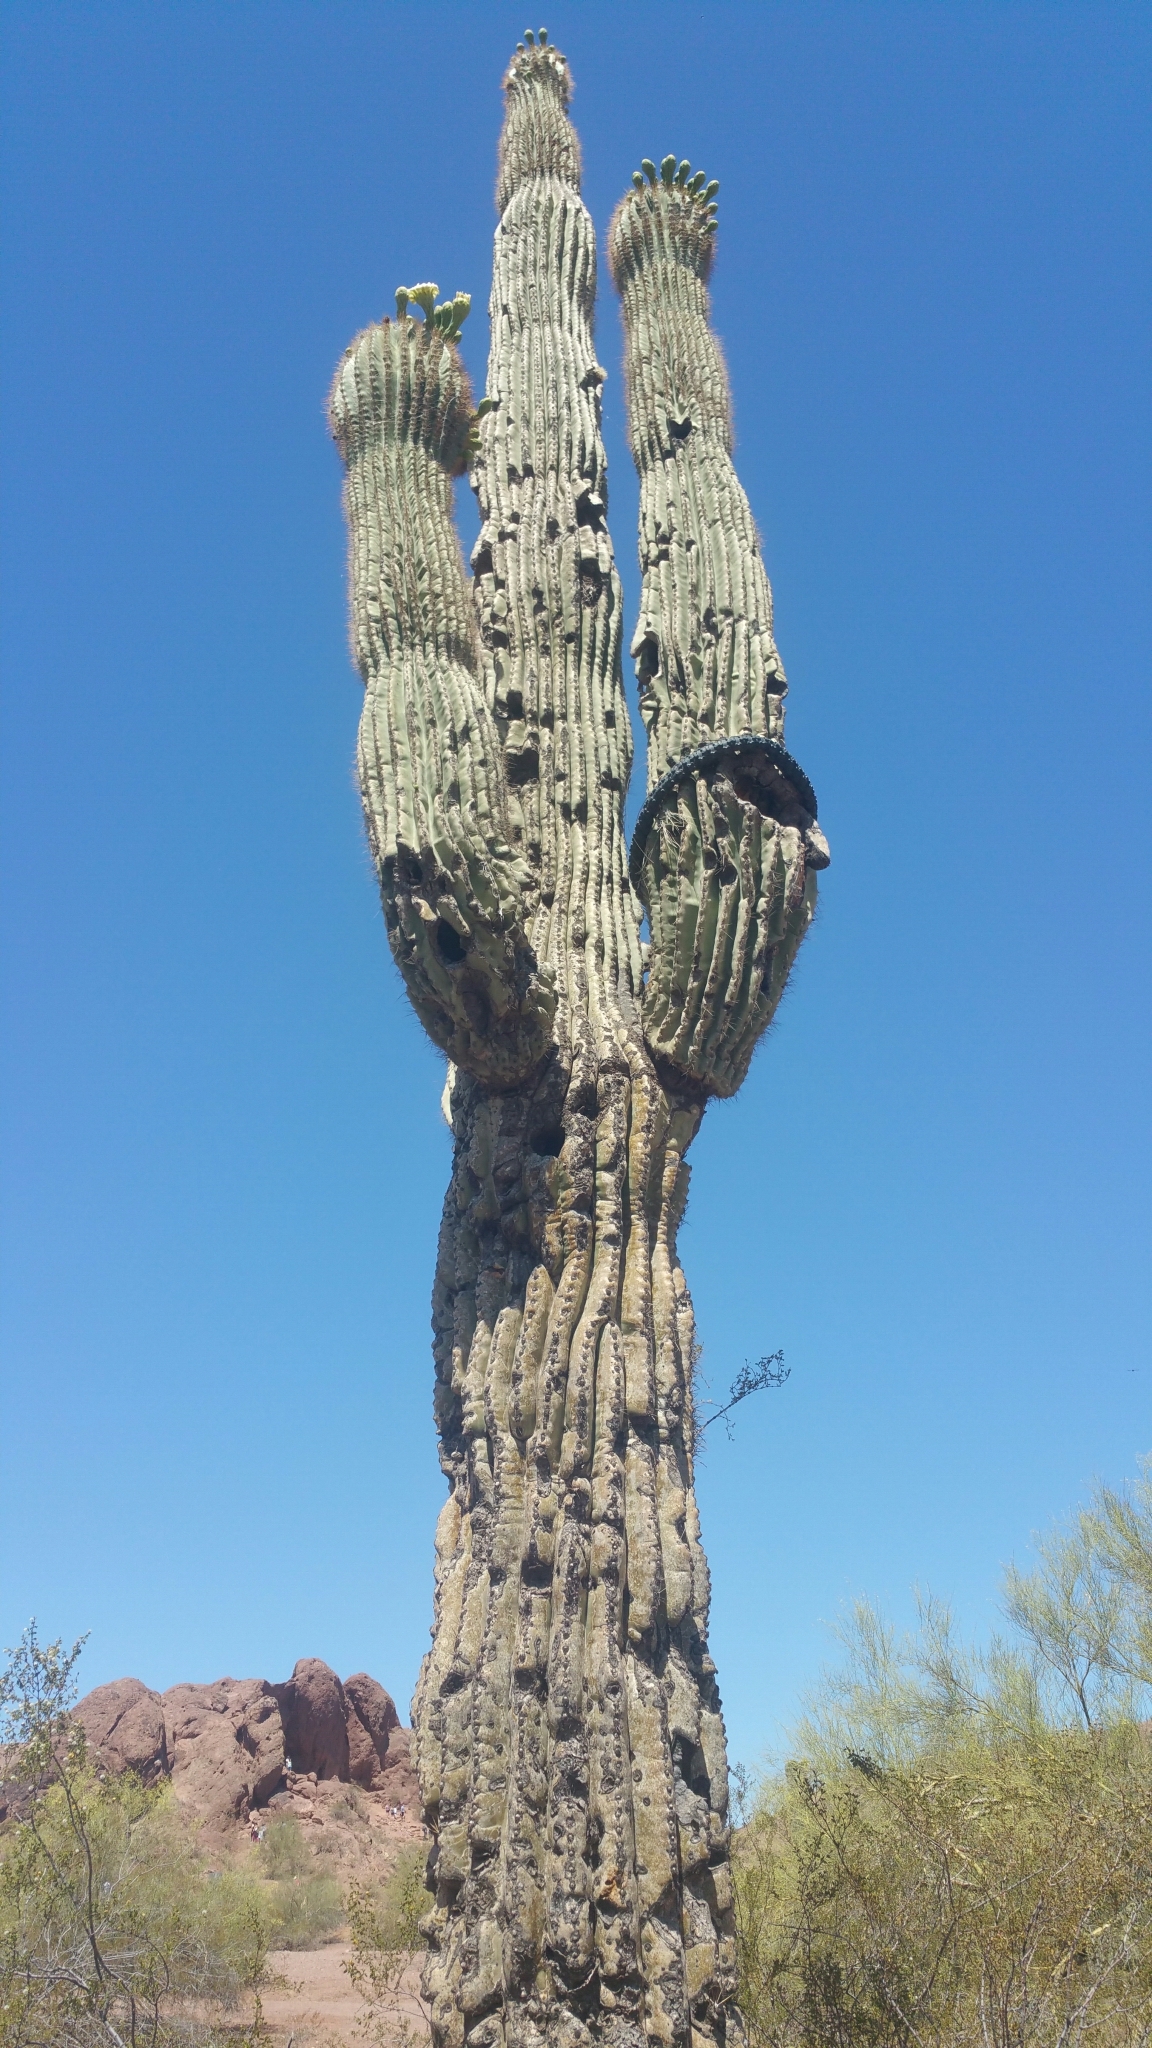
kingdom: Plantae
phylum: Tracheophyta
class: Magnoliopsida
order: Caryophyllales
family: Cactaceae
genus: Carnegiea
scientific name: Carnegiea gigantea
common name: Saguaro
